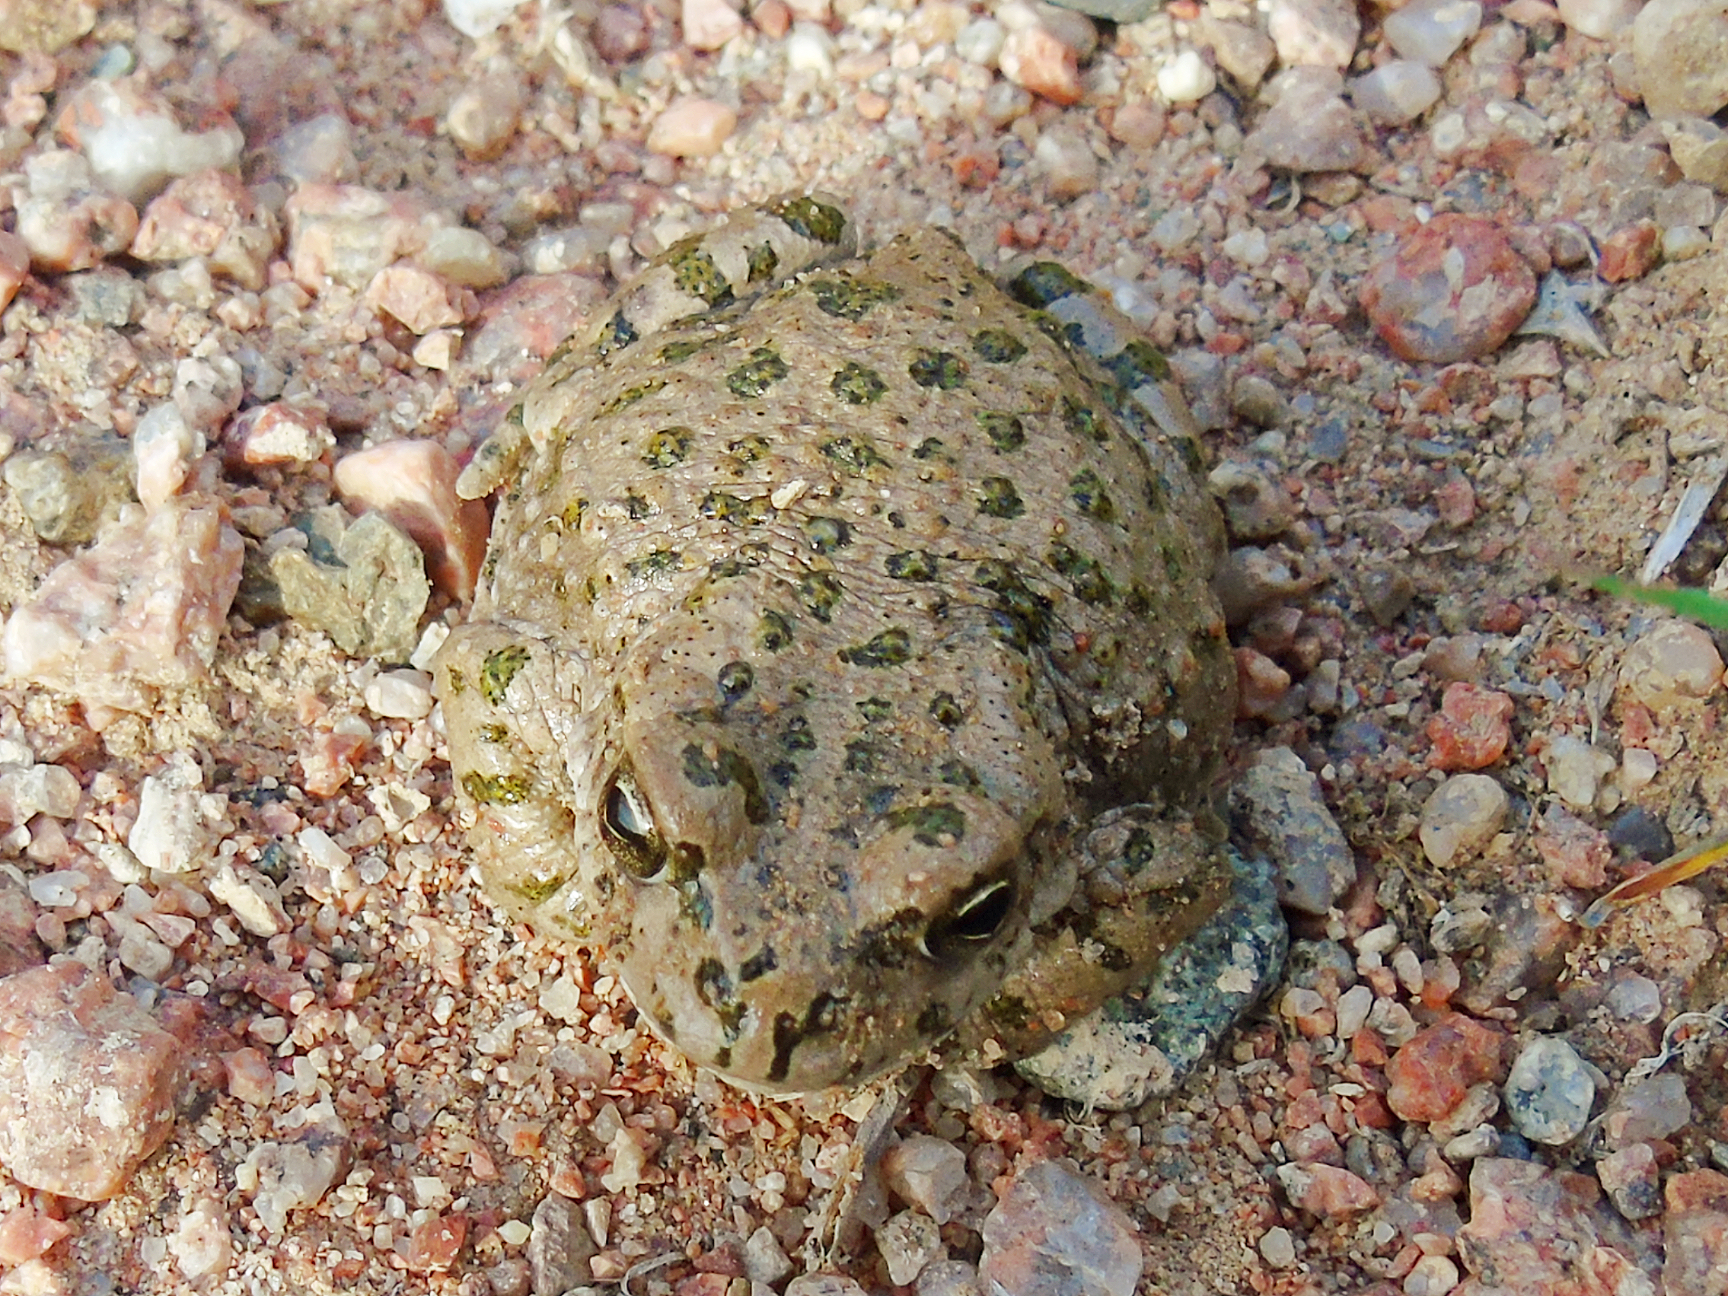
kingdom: Animalia
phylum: Chordata
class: Amphibia
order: Anura
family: Bufonidae
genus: Bufotes
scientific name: Bufotes pewzowi
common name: Xinjiang toad
